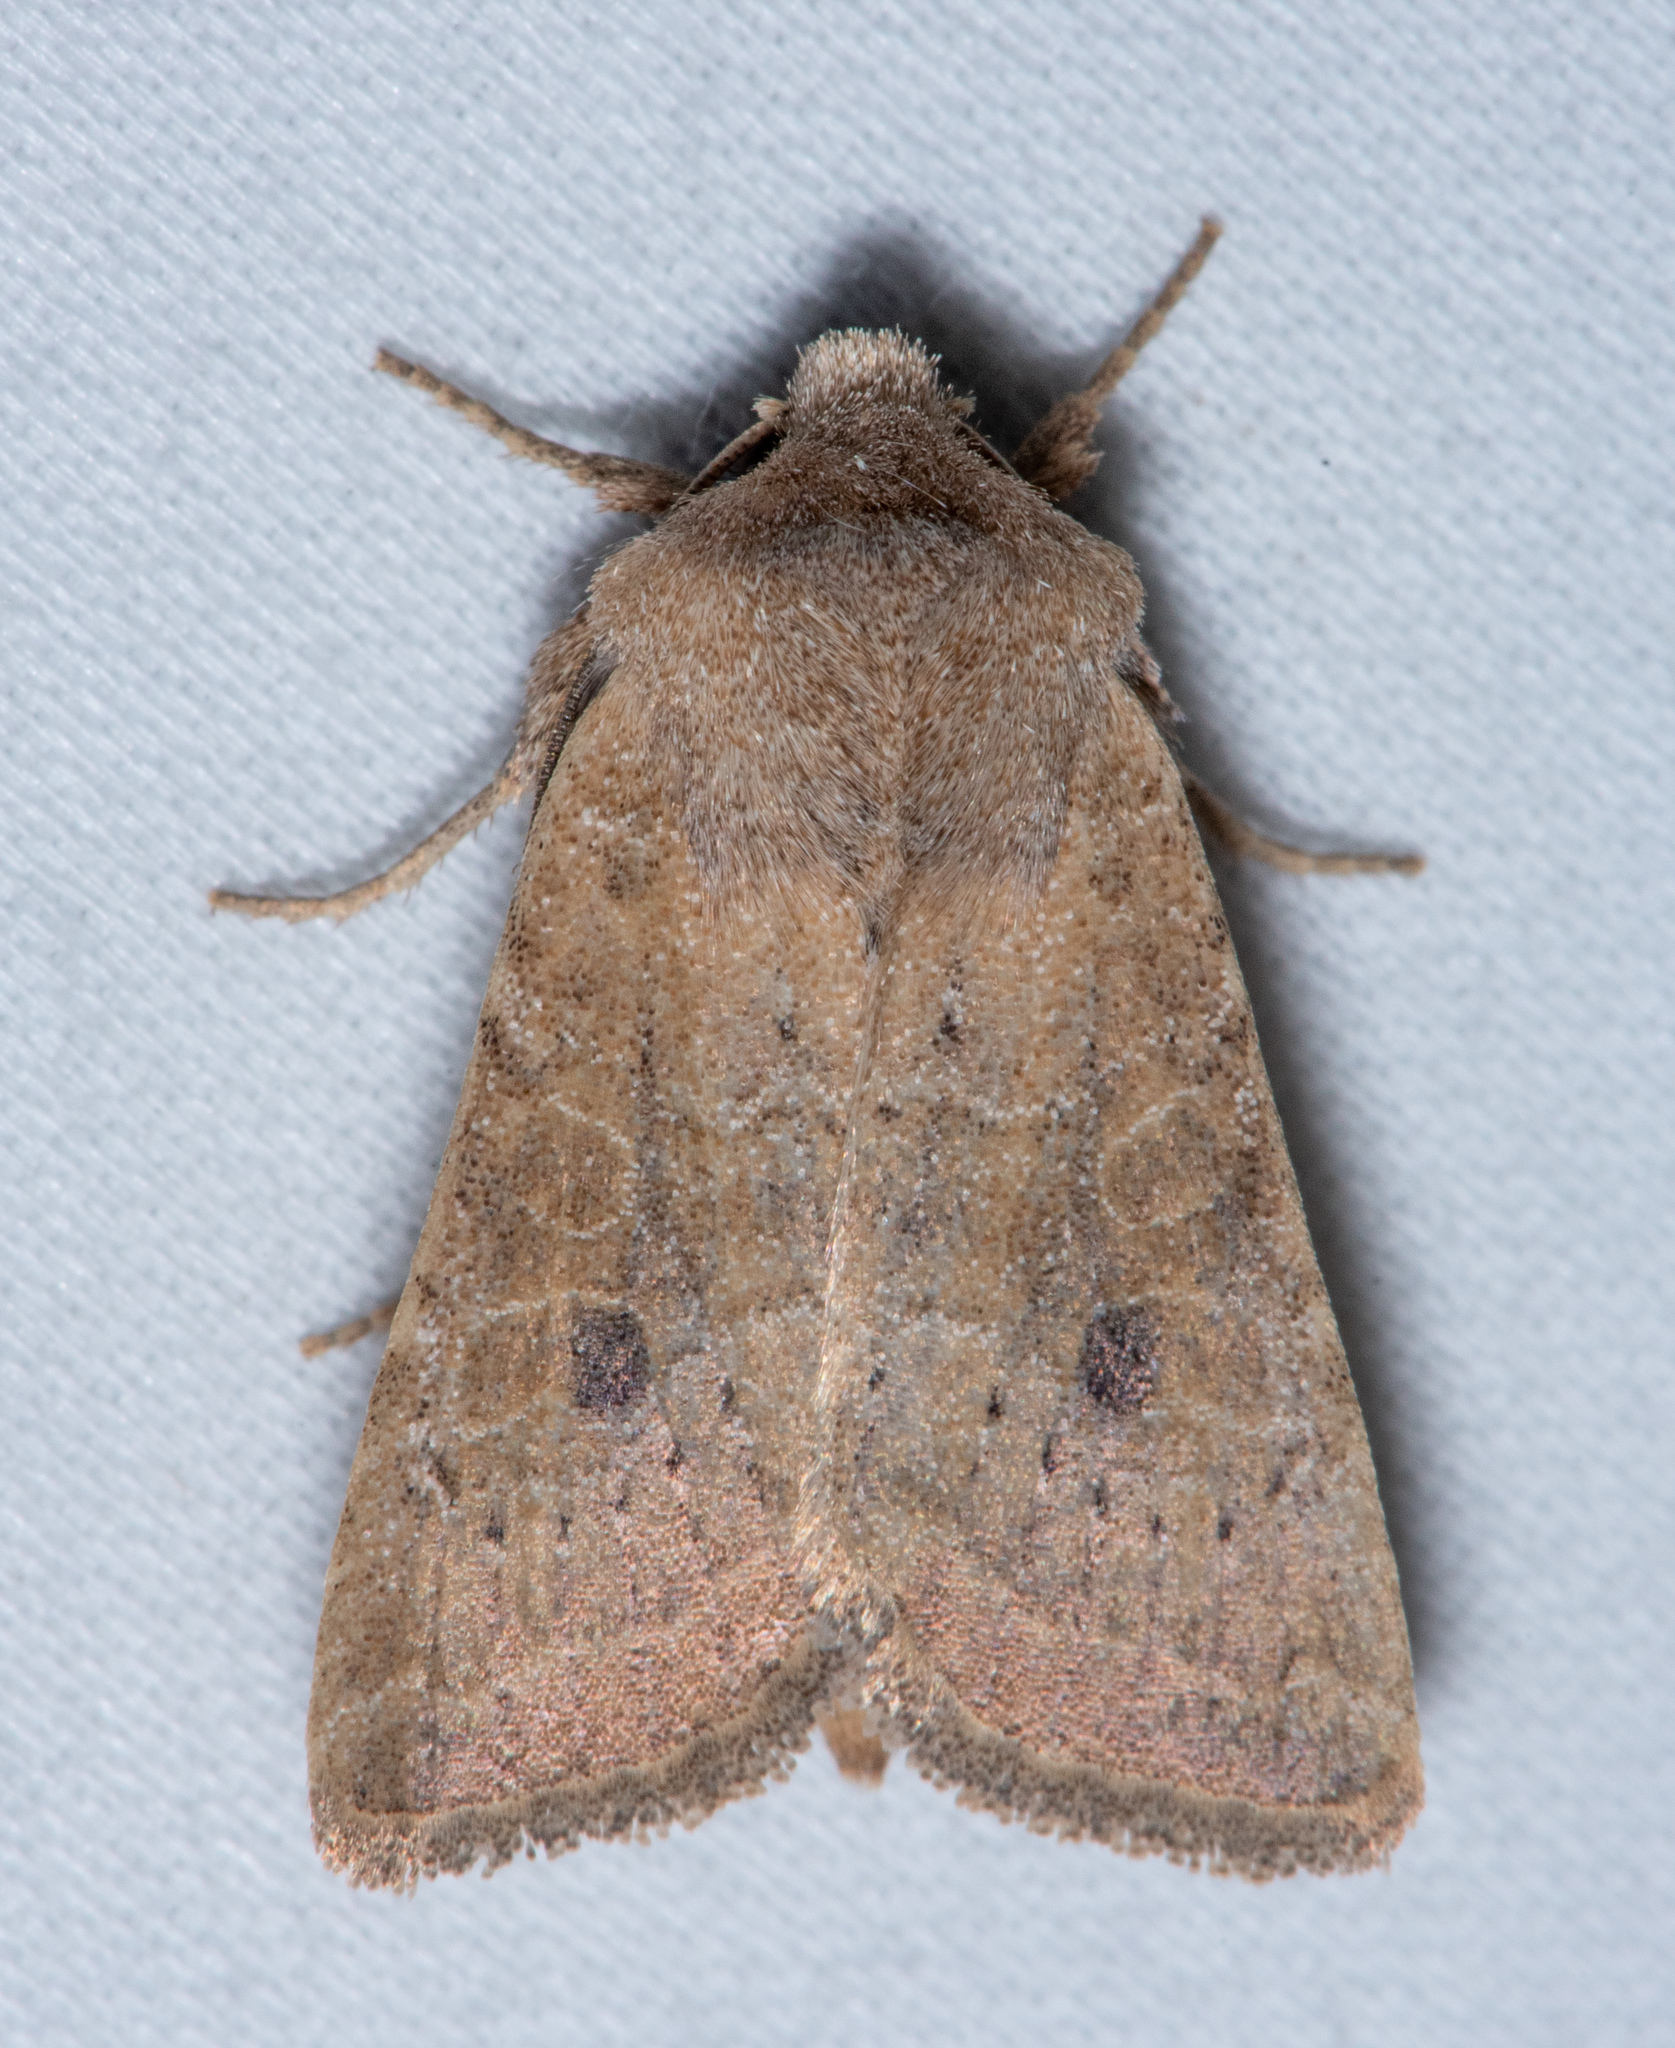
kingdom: Animalia
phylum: Arthropoda
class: Insecta
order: Lepidoptera
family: Noctuidae
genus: Trichopolia
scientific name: Trichopolia
